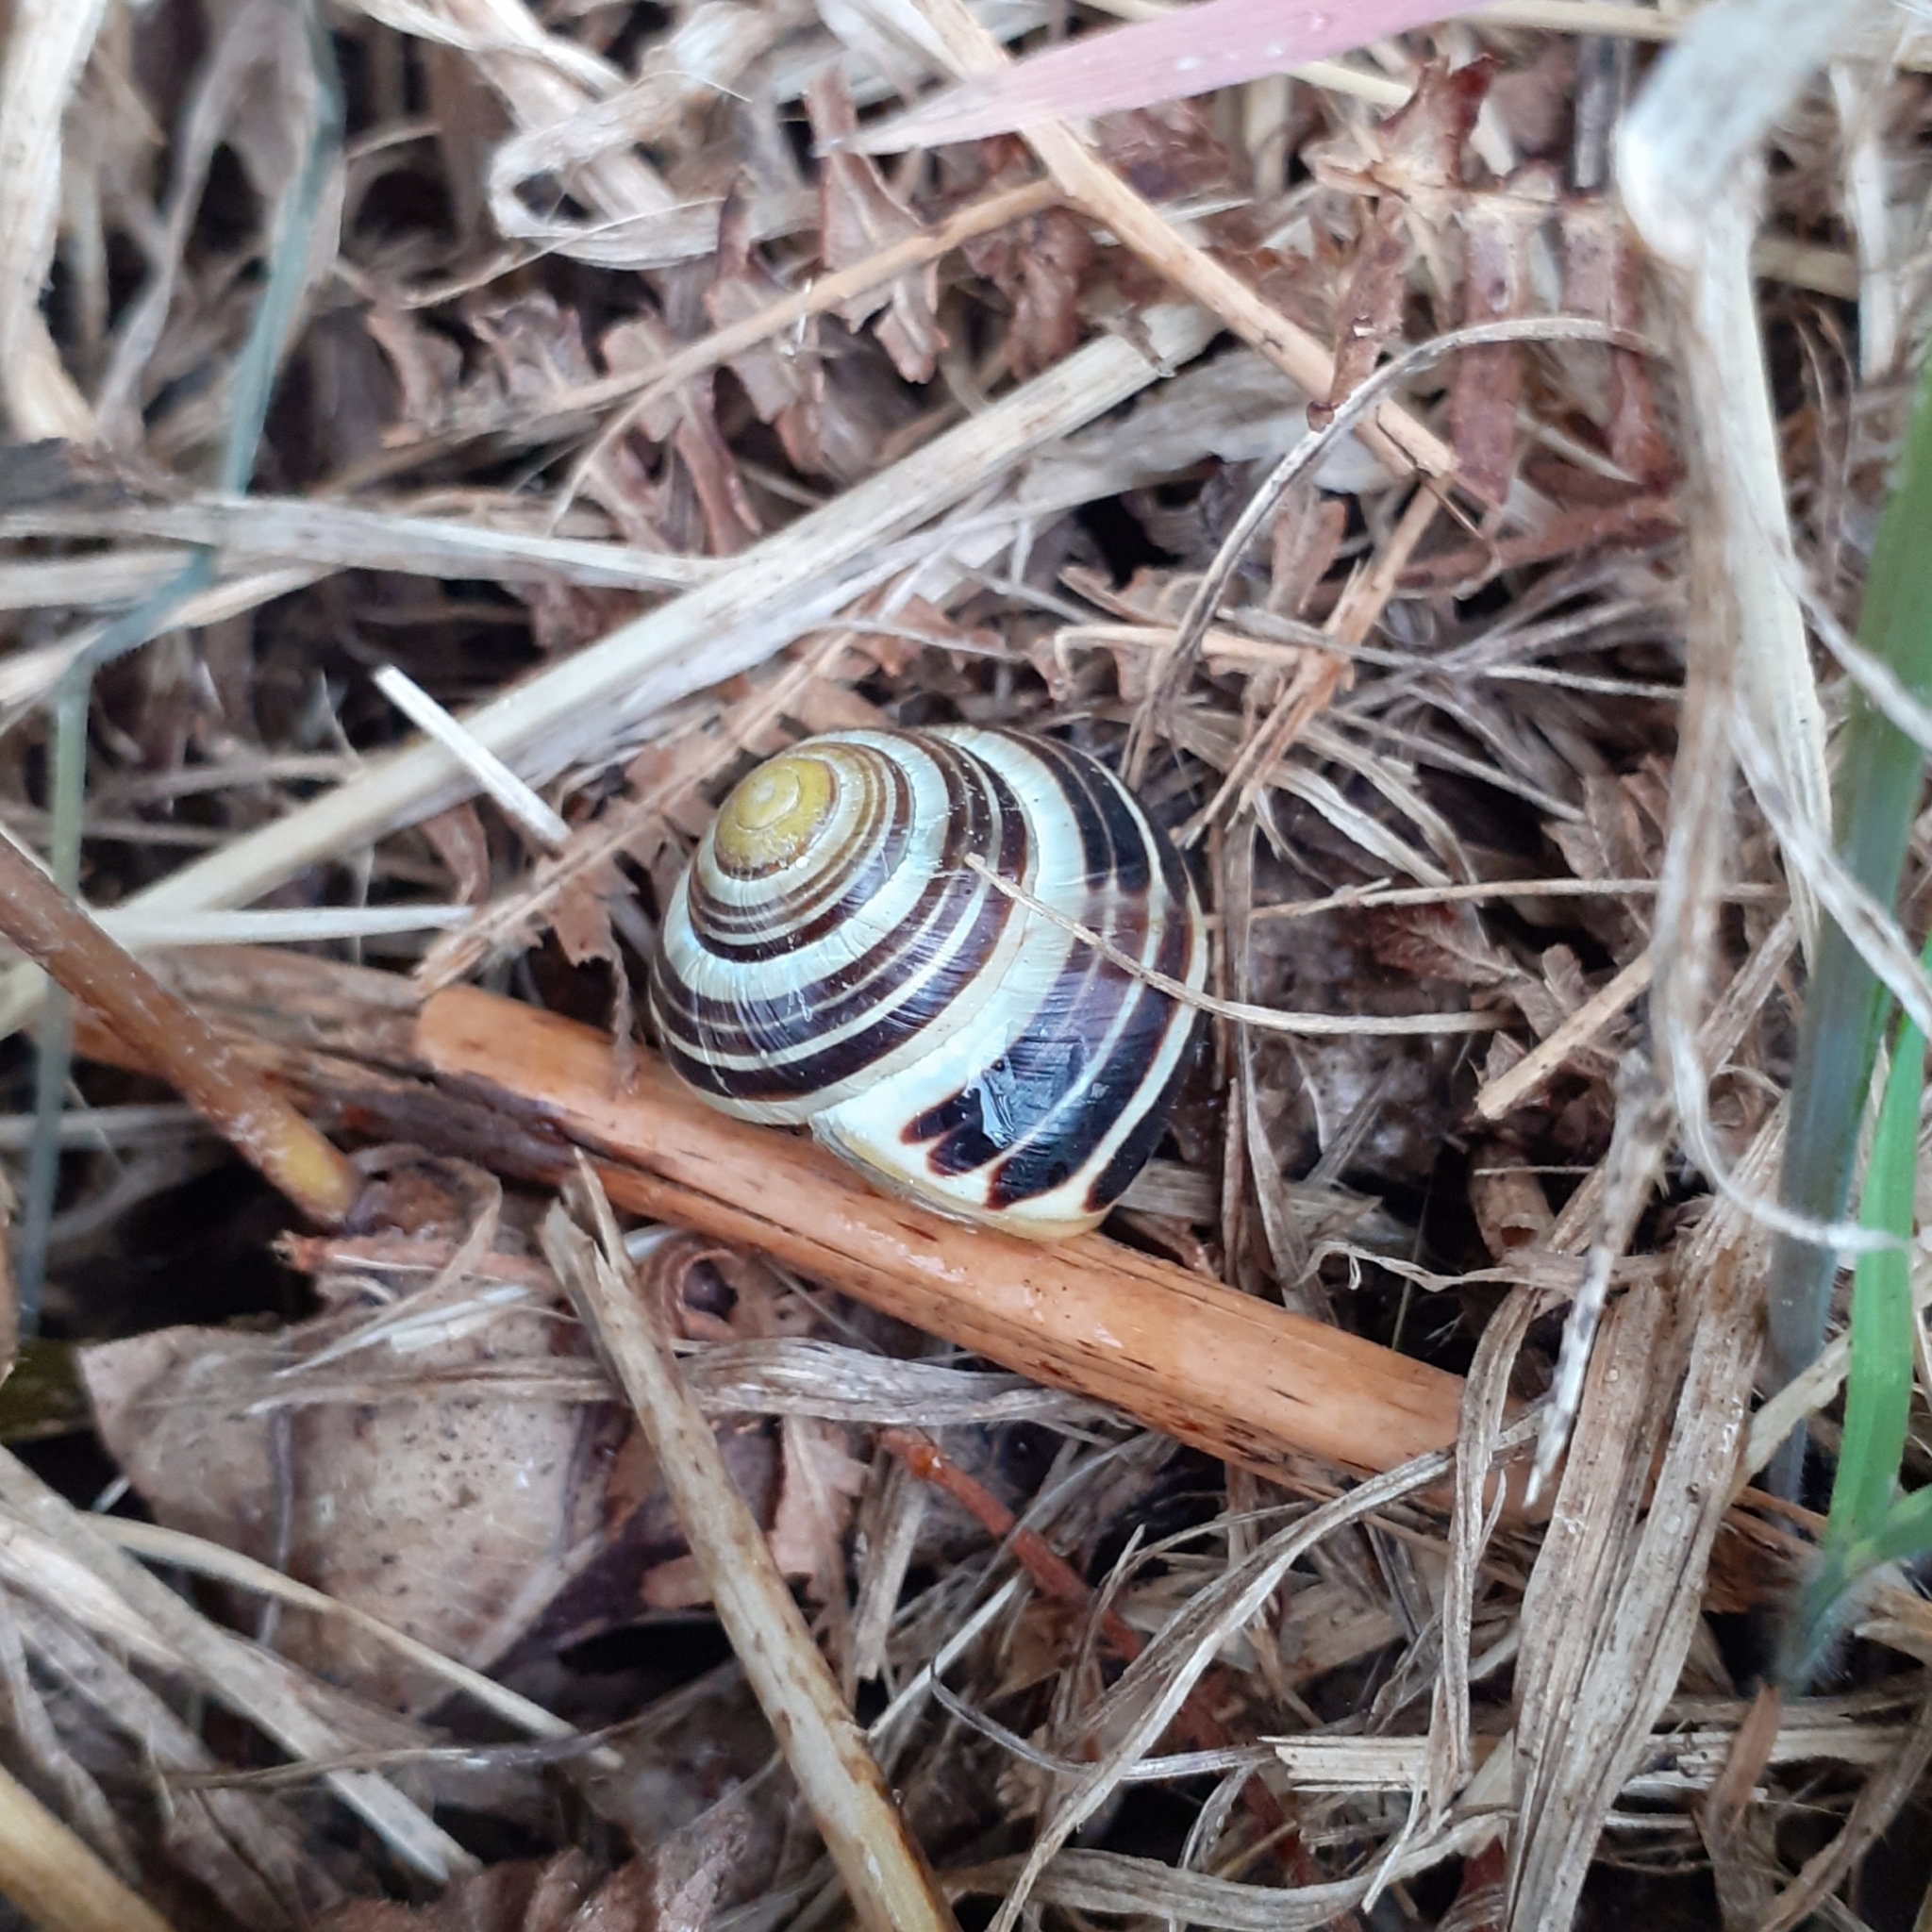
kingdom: Animalia
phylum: Mollusca
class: Gastropoda
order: Stylommatophora
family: Helicidae
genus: Cepaea
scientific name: Cepaea hortensis
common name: White-lip gardensnail
